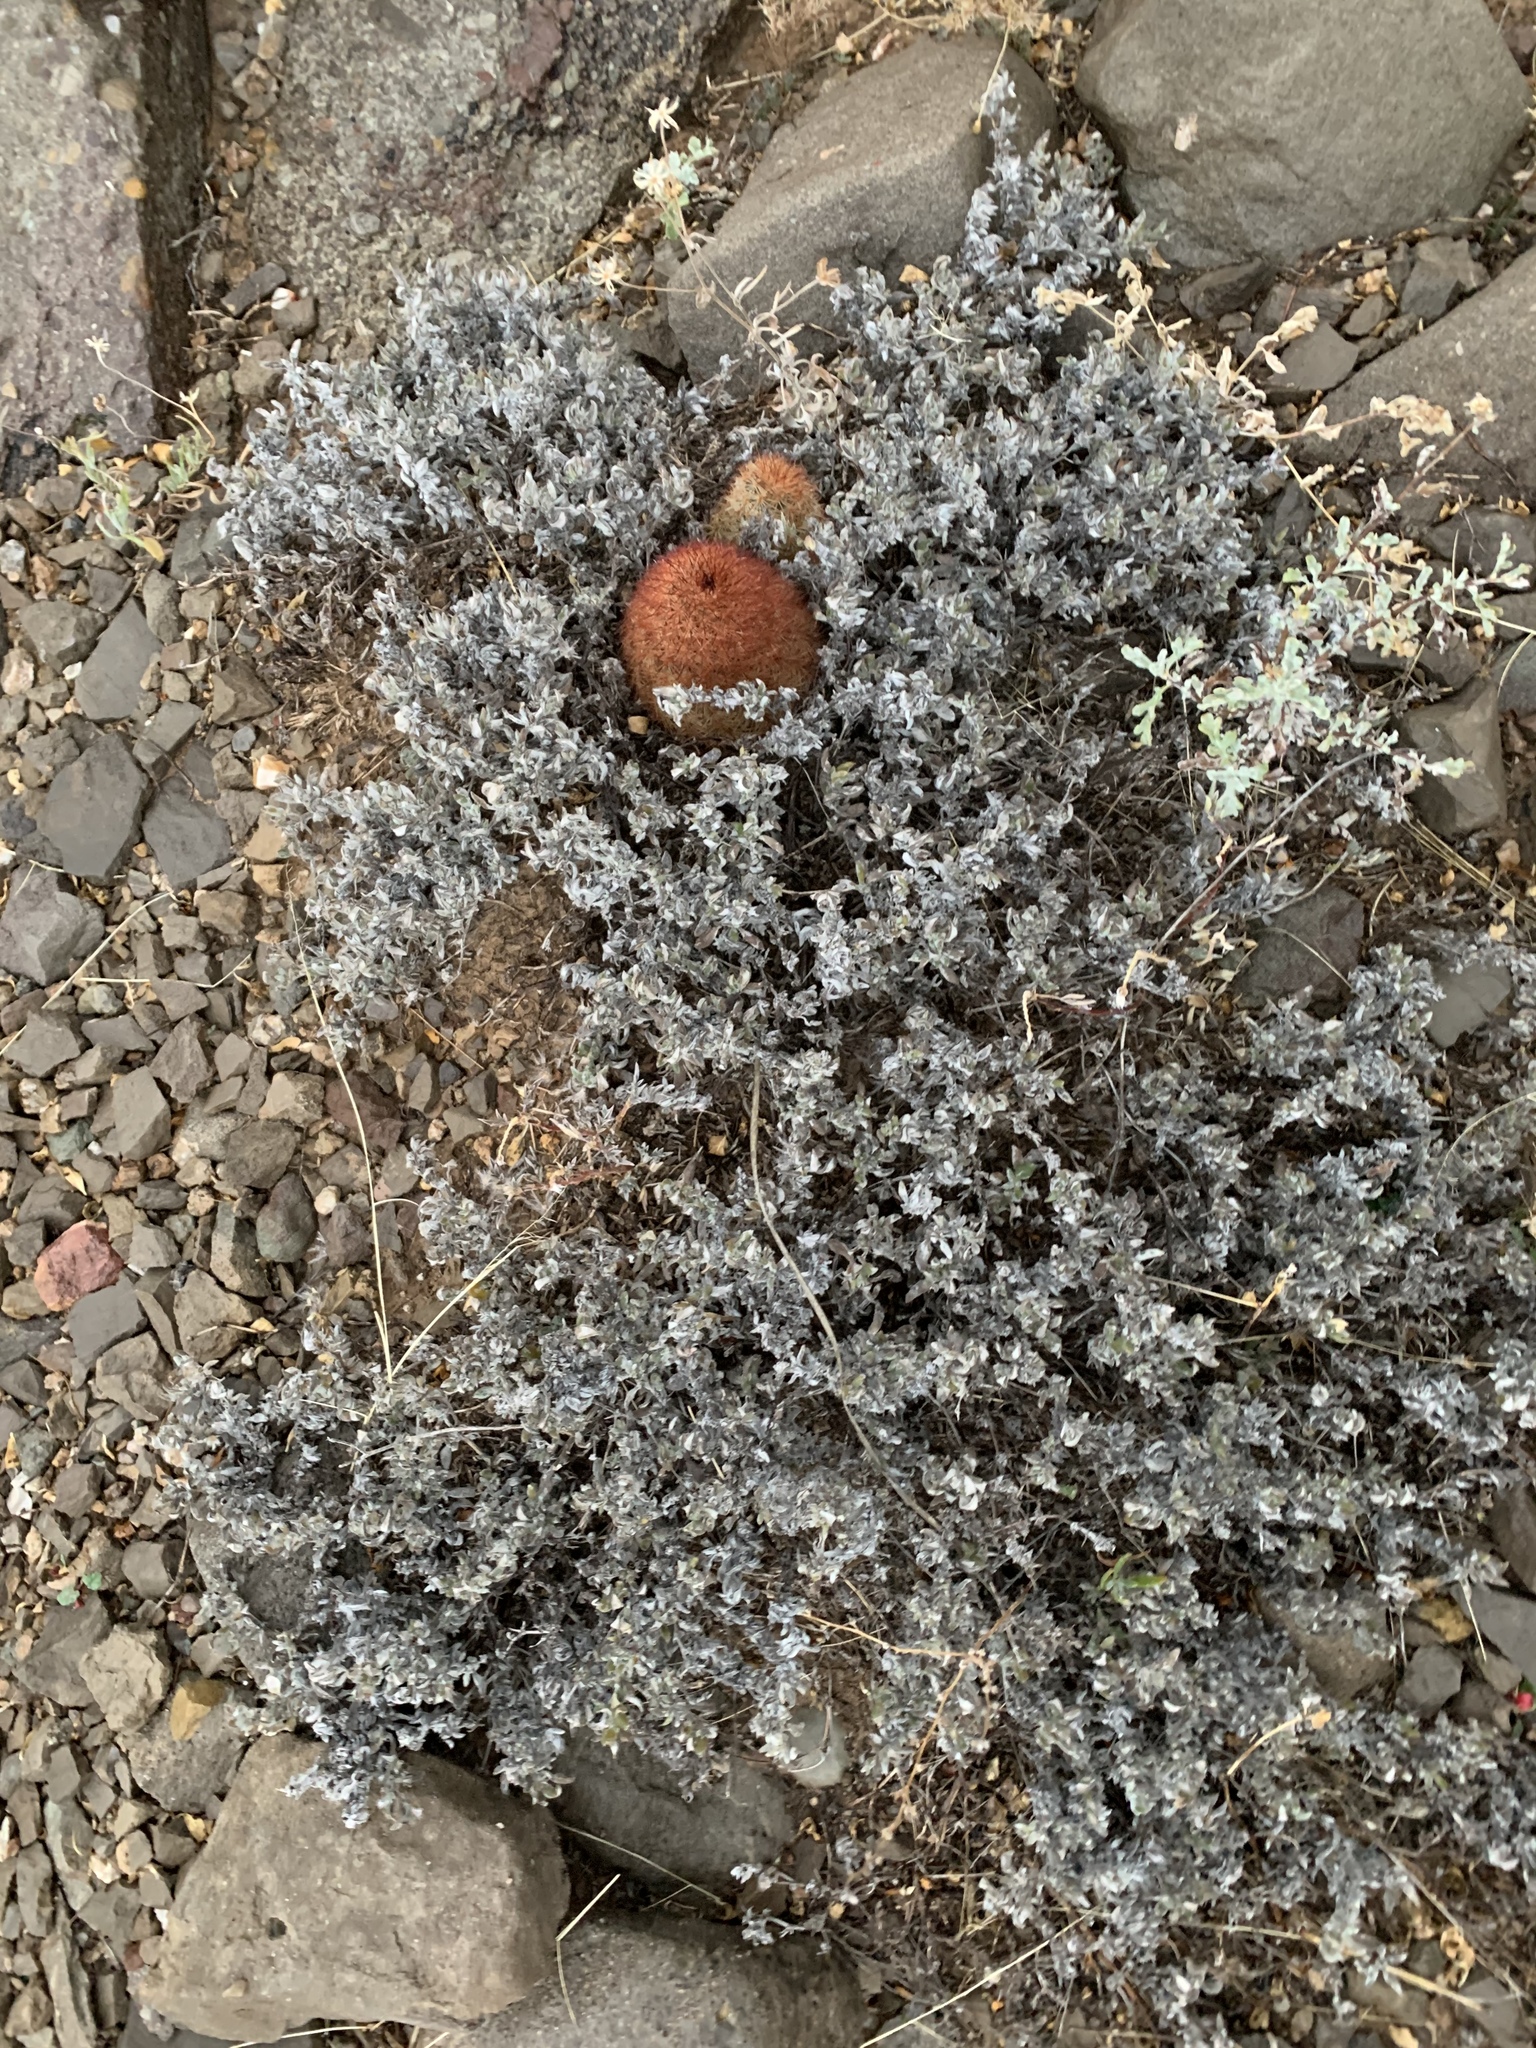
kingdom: Plantae
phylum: Tracheophyta
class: Magnoliopsida
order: Boraginales
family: Ehretiaceae
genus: Tiquilia
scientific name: Tiquilia canescens
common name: Hairy tiquilia
